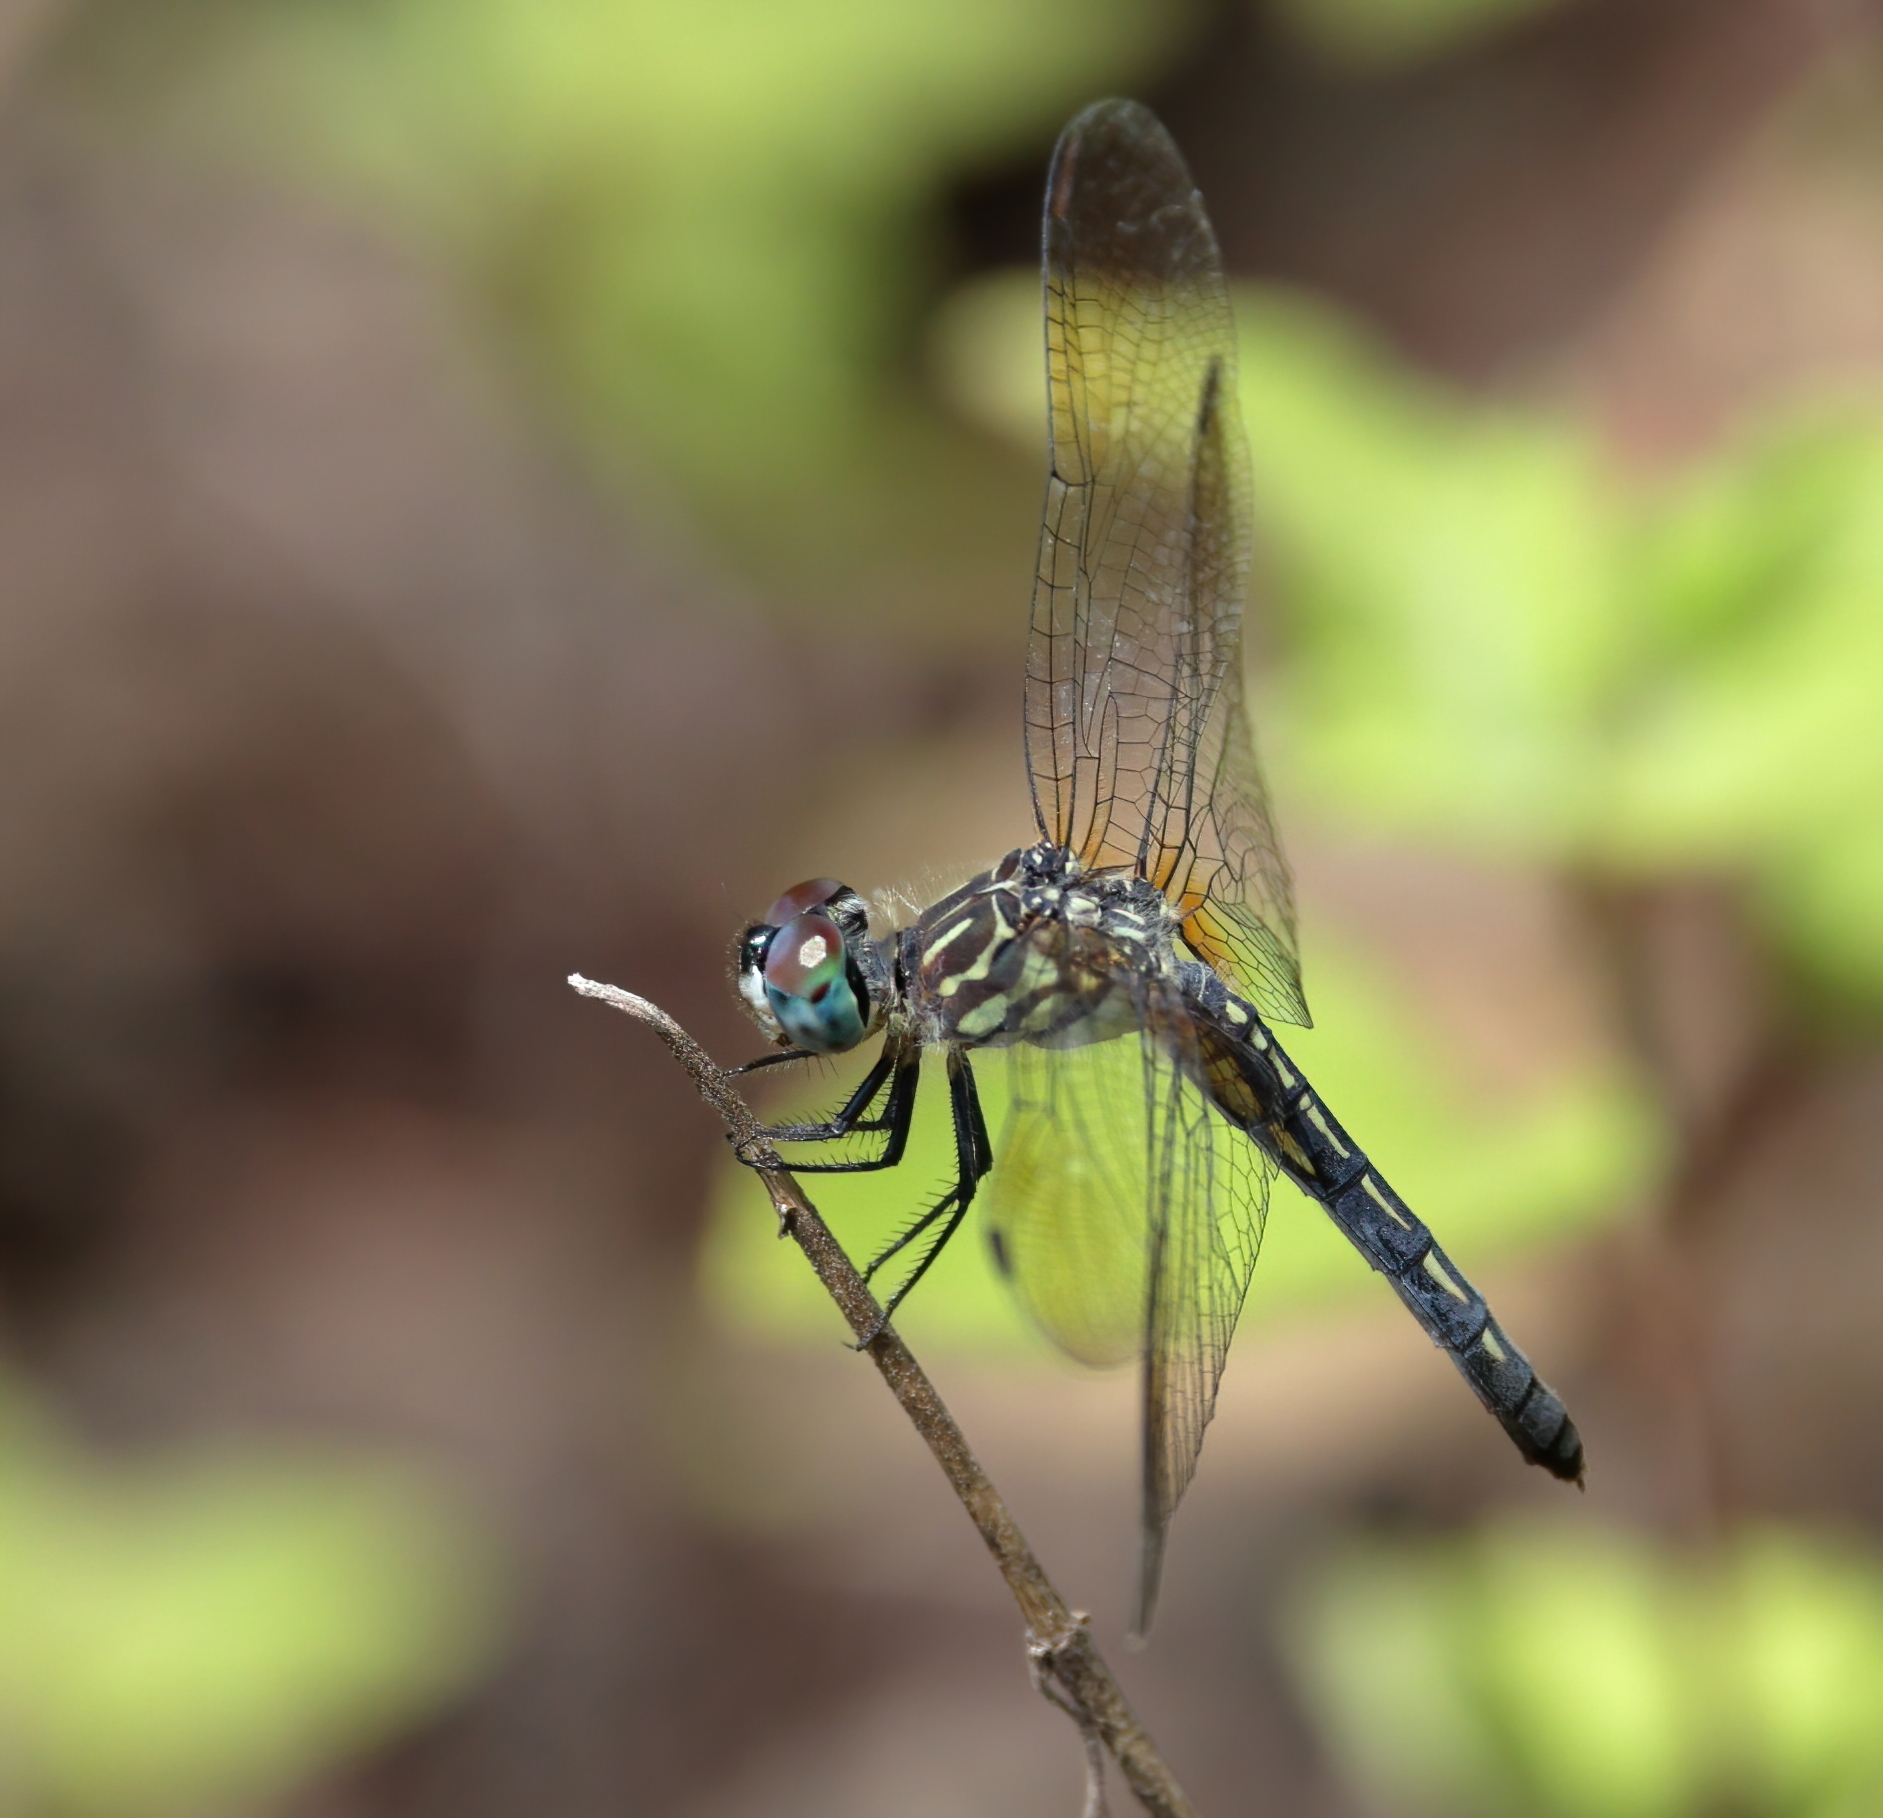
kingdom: Animalia
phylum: Arthropoda
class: Insecta
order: Odonata
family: Libellulidae
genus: Pachydiplax
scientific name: Pachydiplax longipennis
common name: Blue dasher
